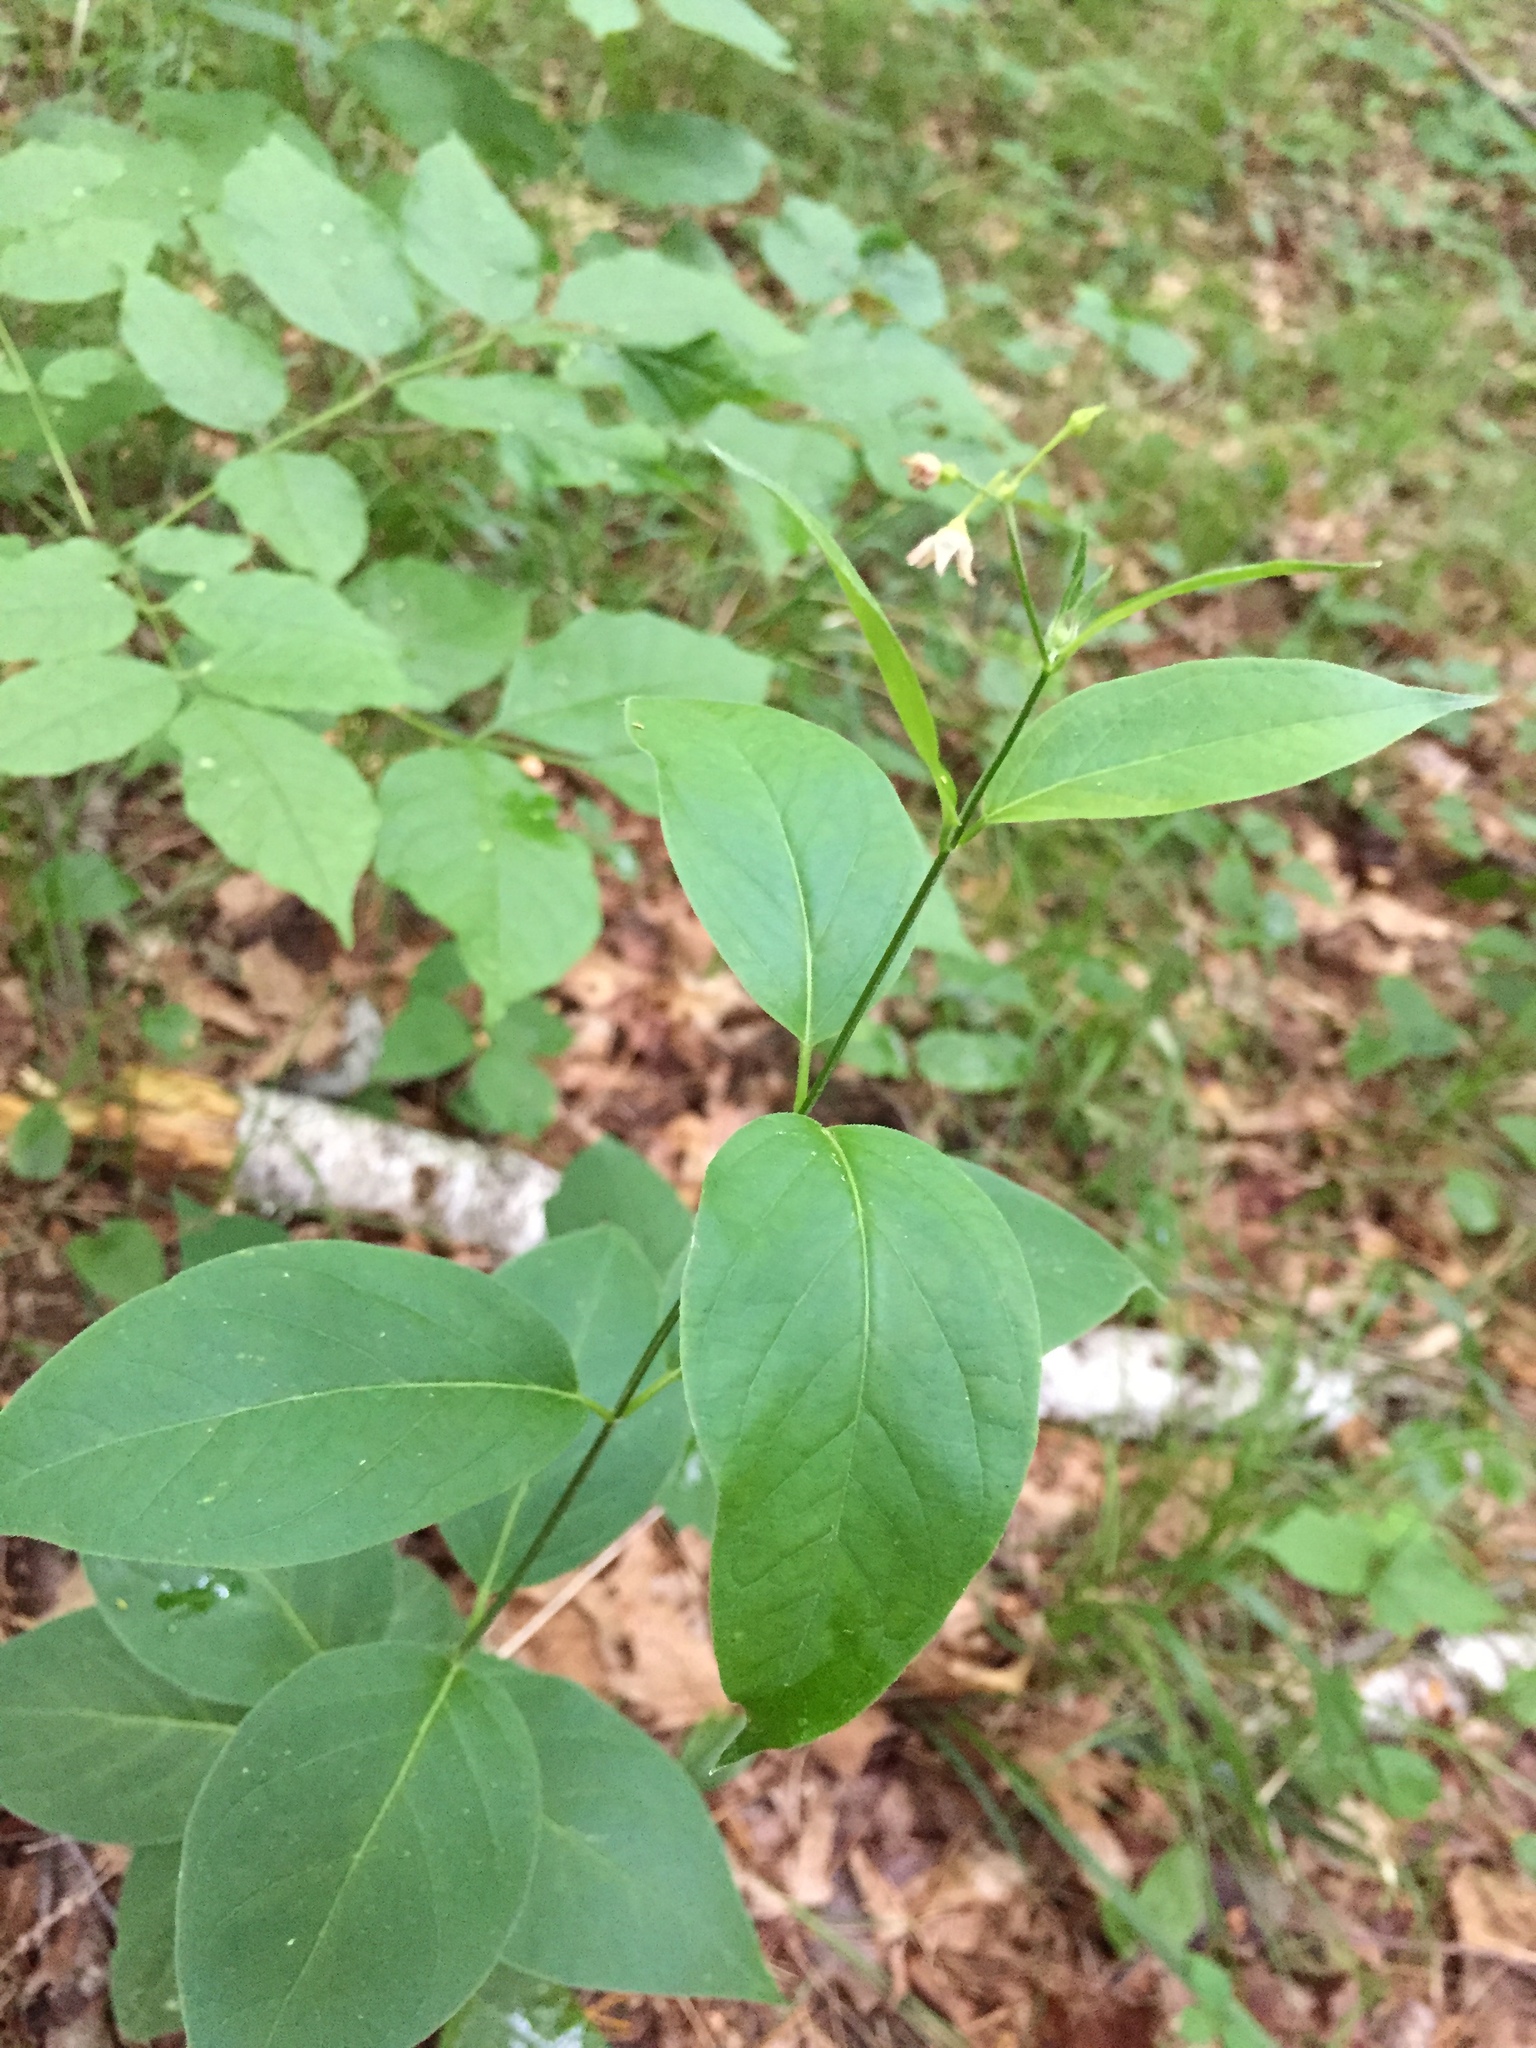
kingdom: Plantae
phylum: Tracheophyta
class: Magnoliopsida
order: Gentianales
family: Apocynaceae
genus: Vincetoxicum
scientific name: Vincetoxicum rossicum
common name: Dog-strangling vine
